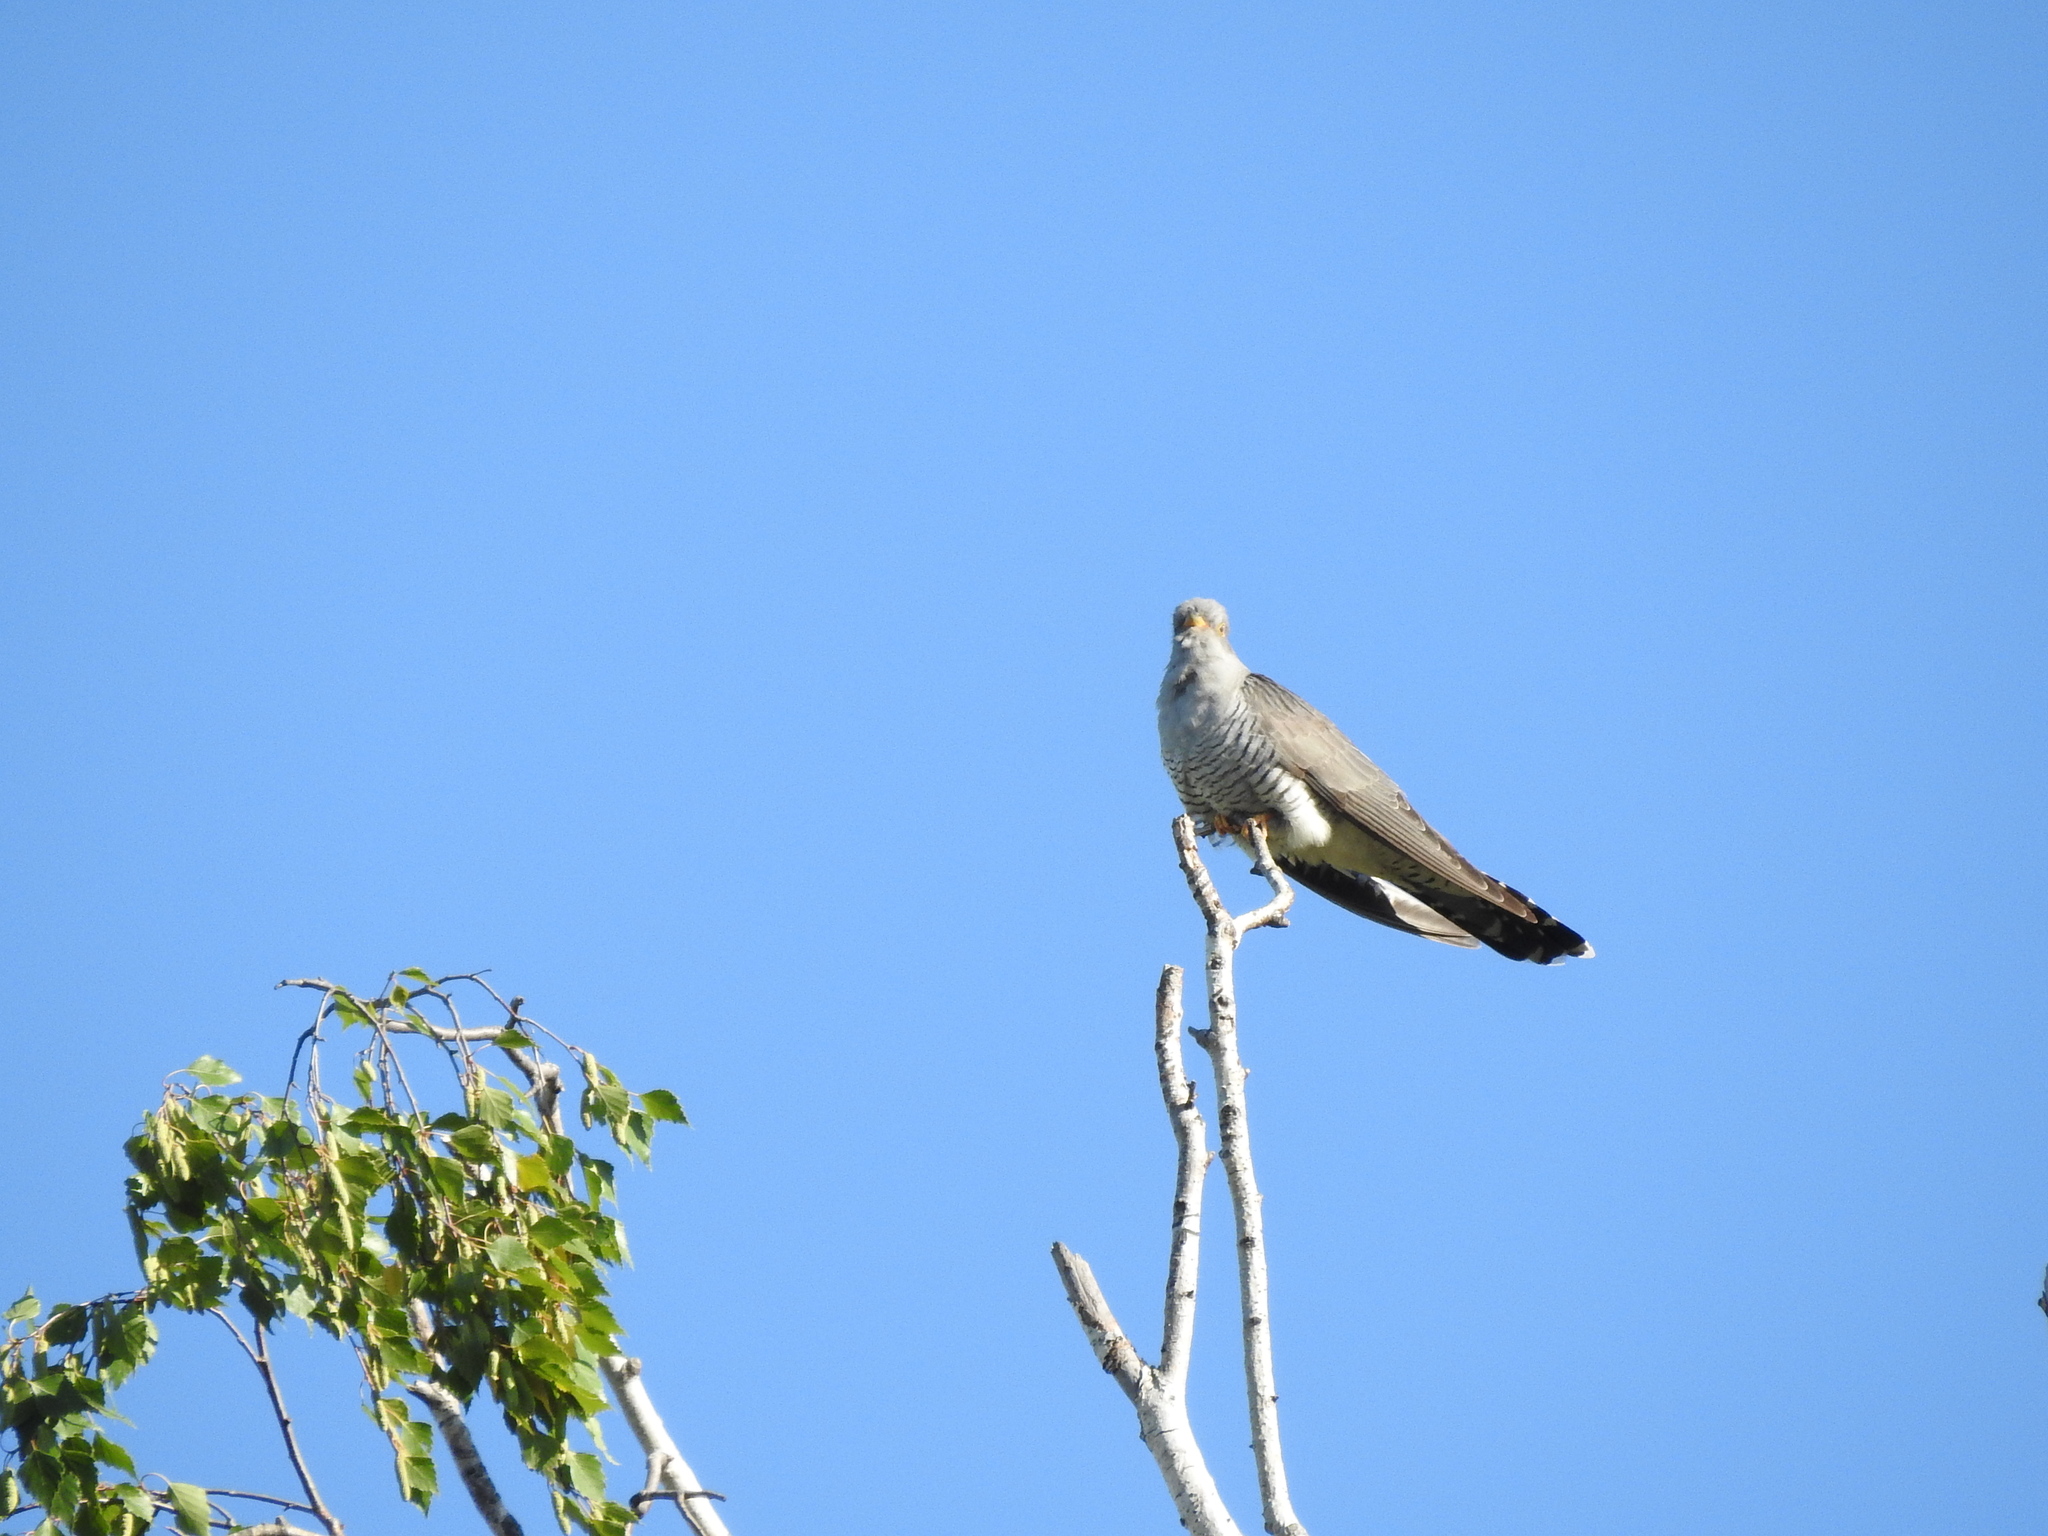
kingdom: Animalia
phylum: Chordata
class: Aves
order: Cuculiformes
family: Cuculidae
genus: Cuculus
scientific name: Cuculus canorus
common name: Common cuckoo
